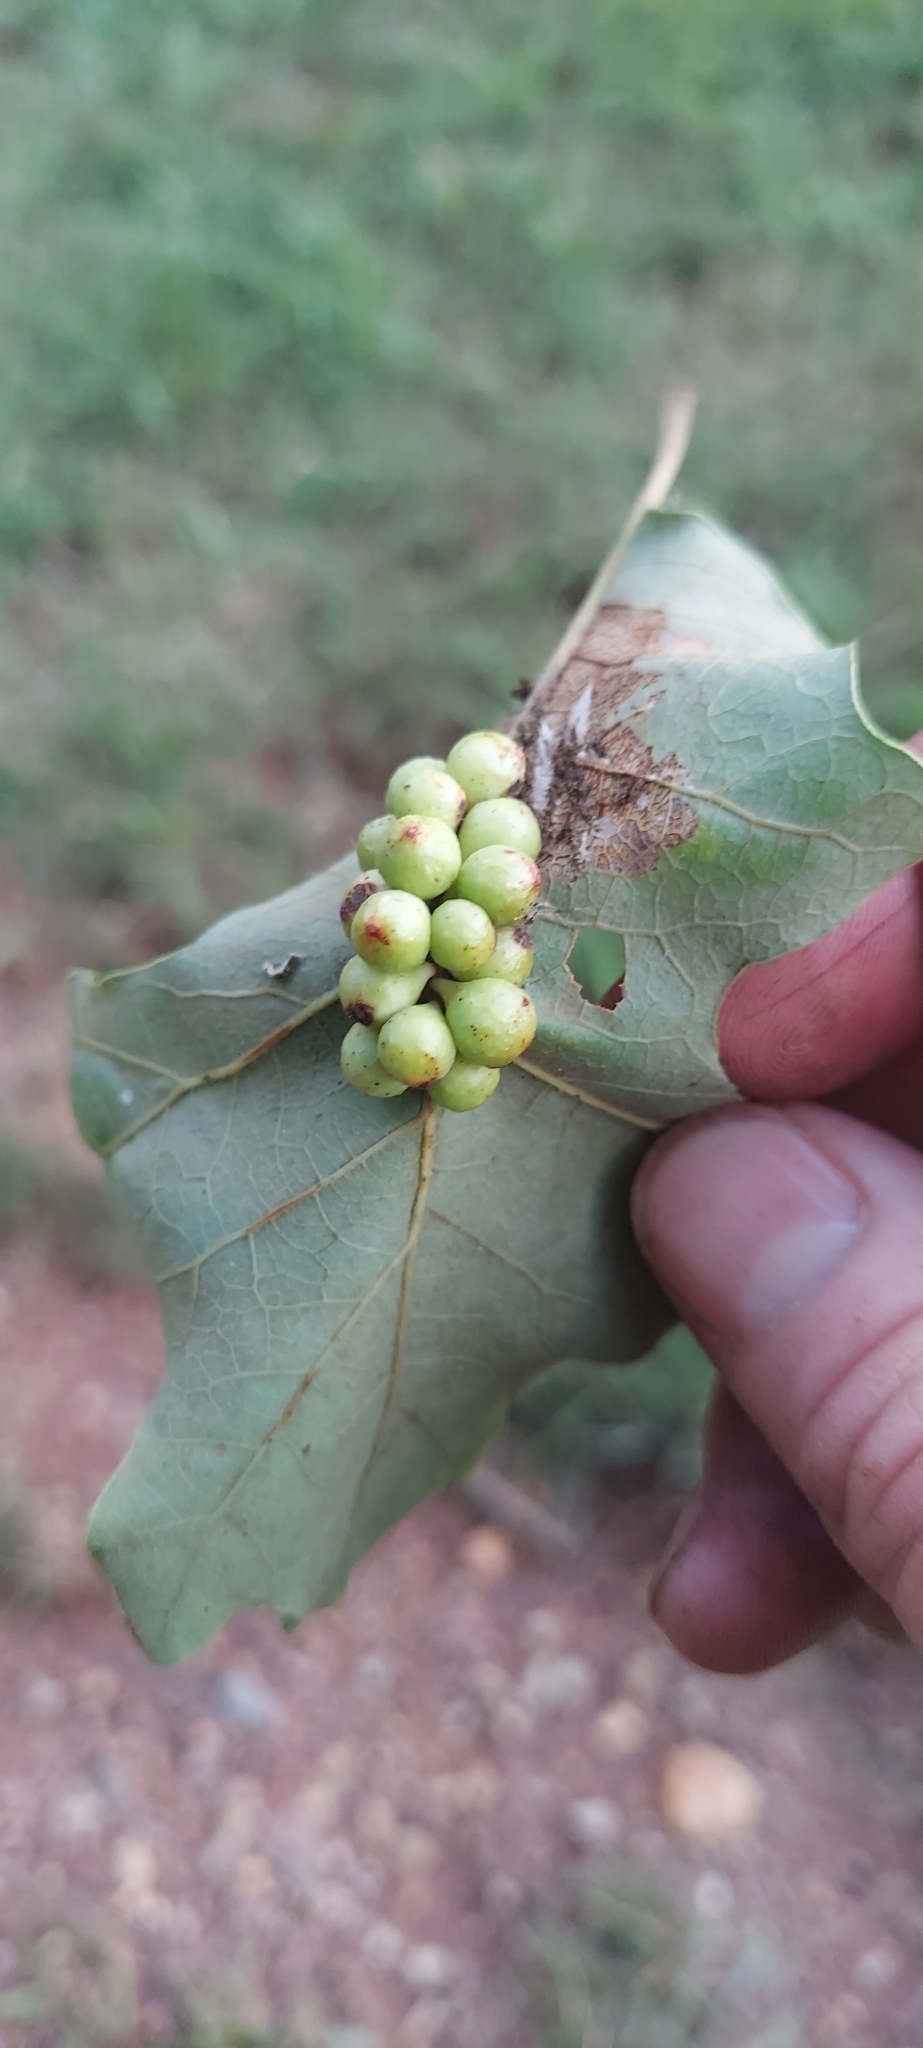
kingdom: Animalia
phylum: Arthropoda
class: Insecta
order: Hymenoptera
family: Cynipidae
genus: Andricus
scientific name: Andricus
